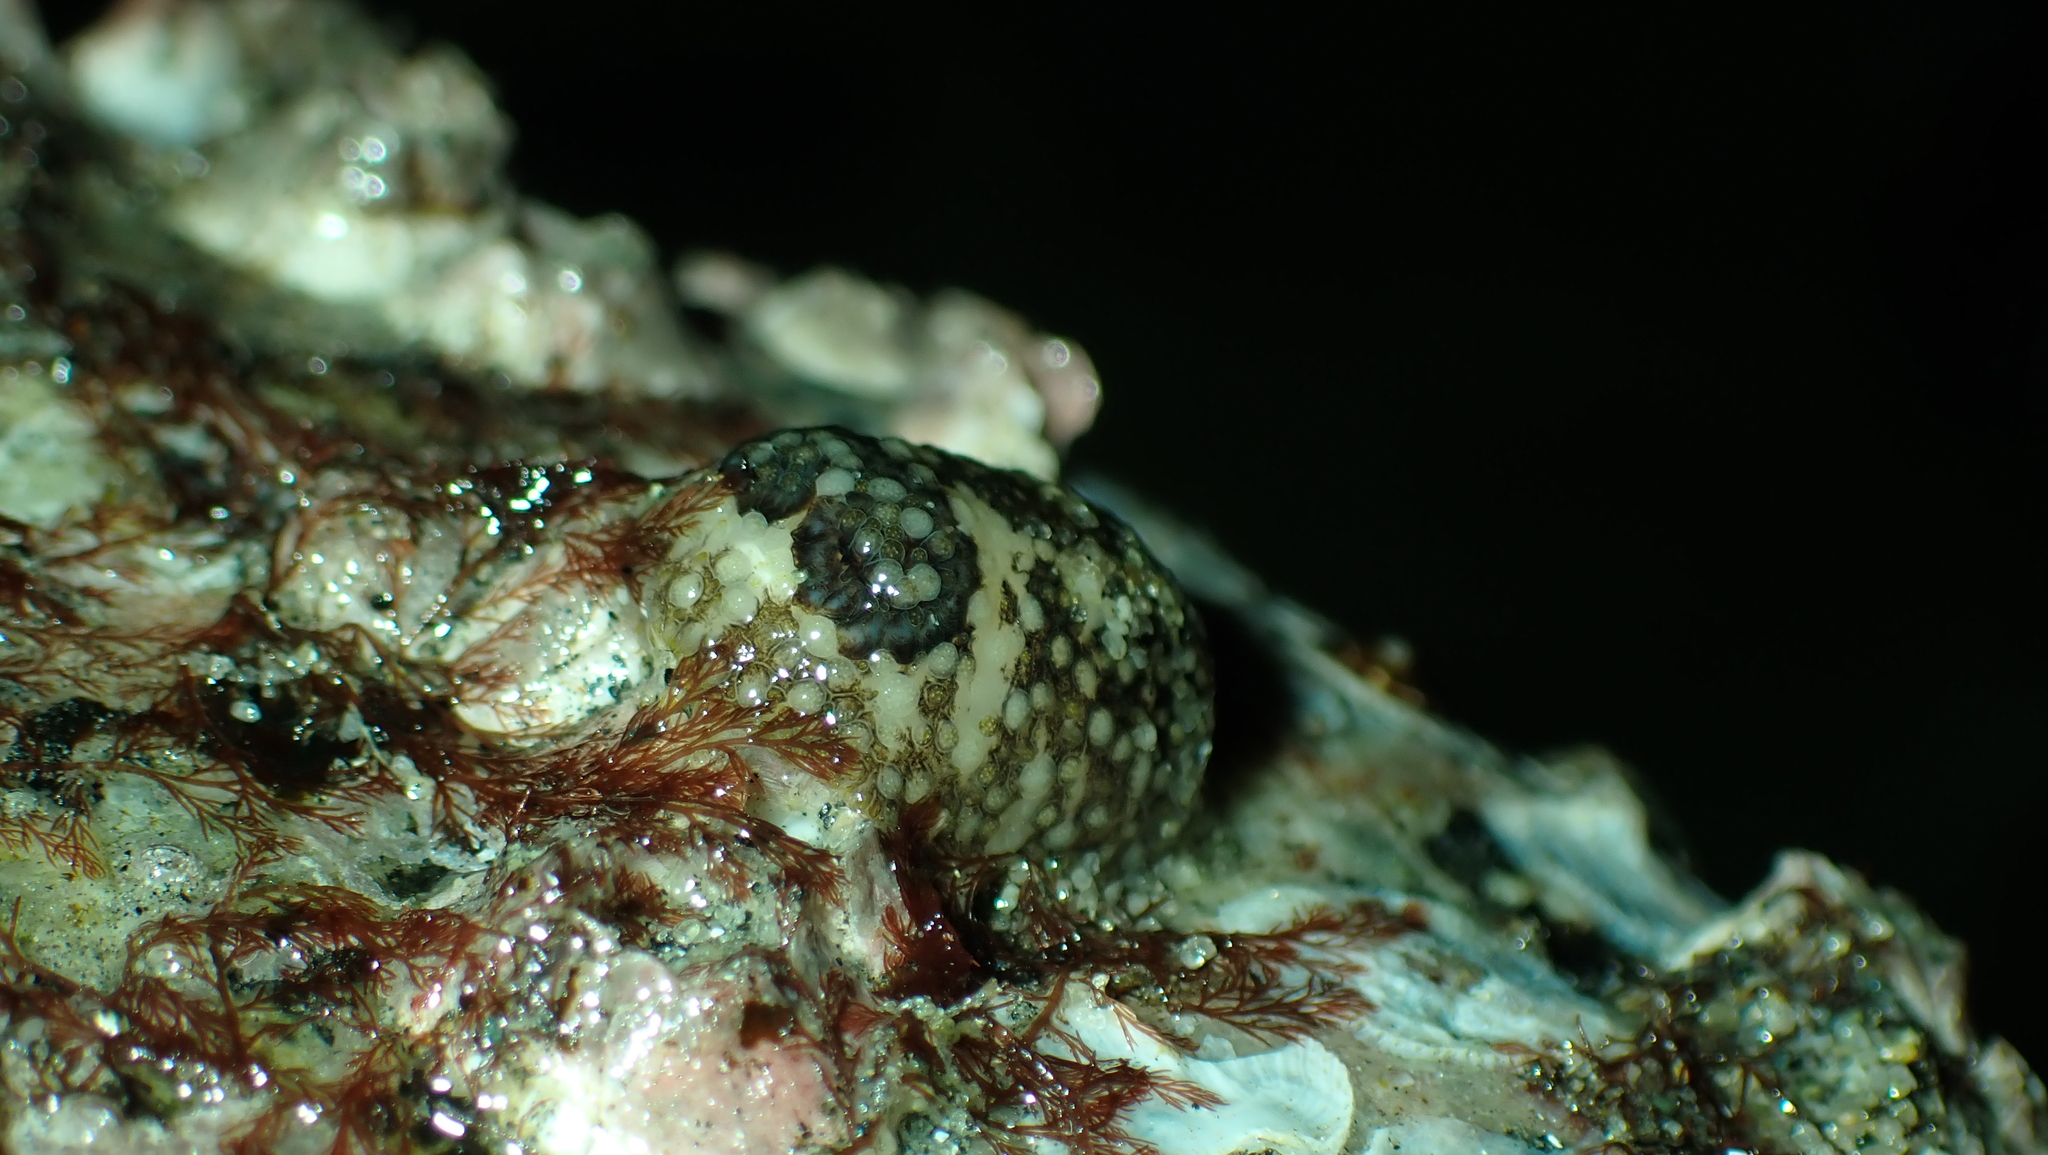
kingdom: Animalia
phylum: Mollusca
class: Gastropoda
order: Nudibranchia
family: Onchidorididae
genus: Onchidoris
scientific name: Onchidoris bilamellata
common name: Barnacle-eating onchidoris
